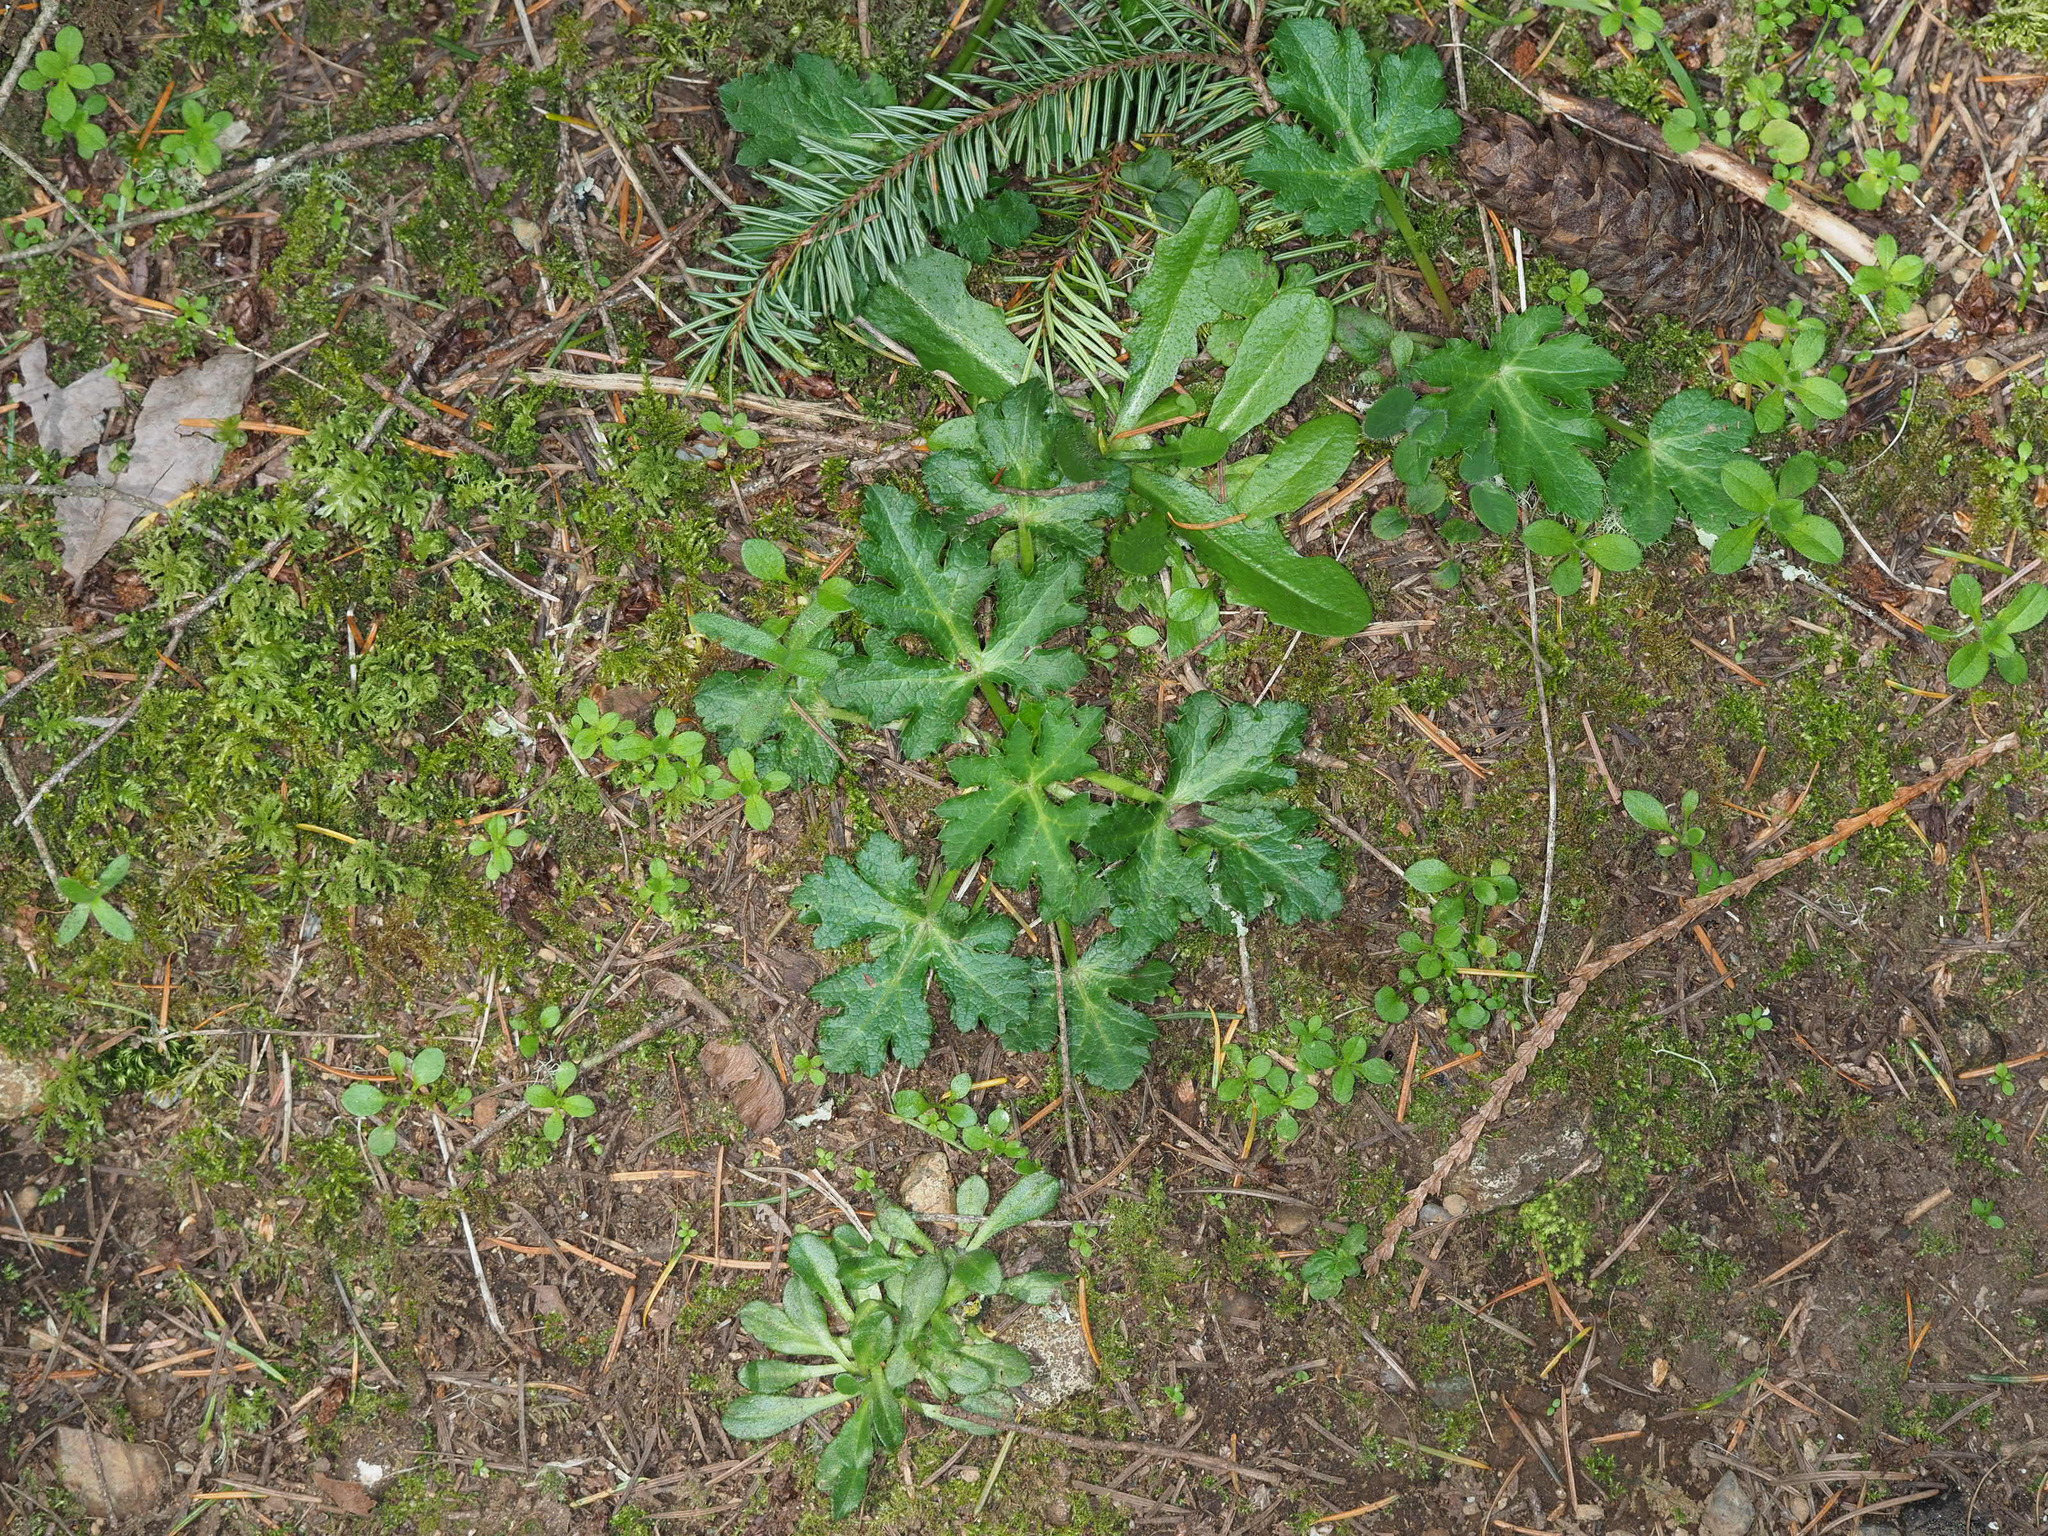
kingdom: Plantae
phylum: Tracheophyta
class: Magnoliopsida
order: Apiales
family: Apiaceae
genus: Sanicula
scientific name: Sanicula crassicaulis
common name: Western snakeroot
